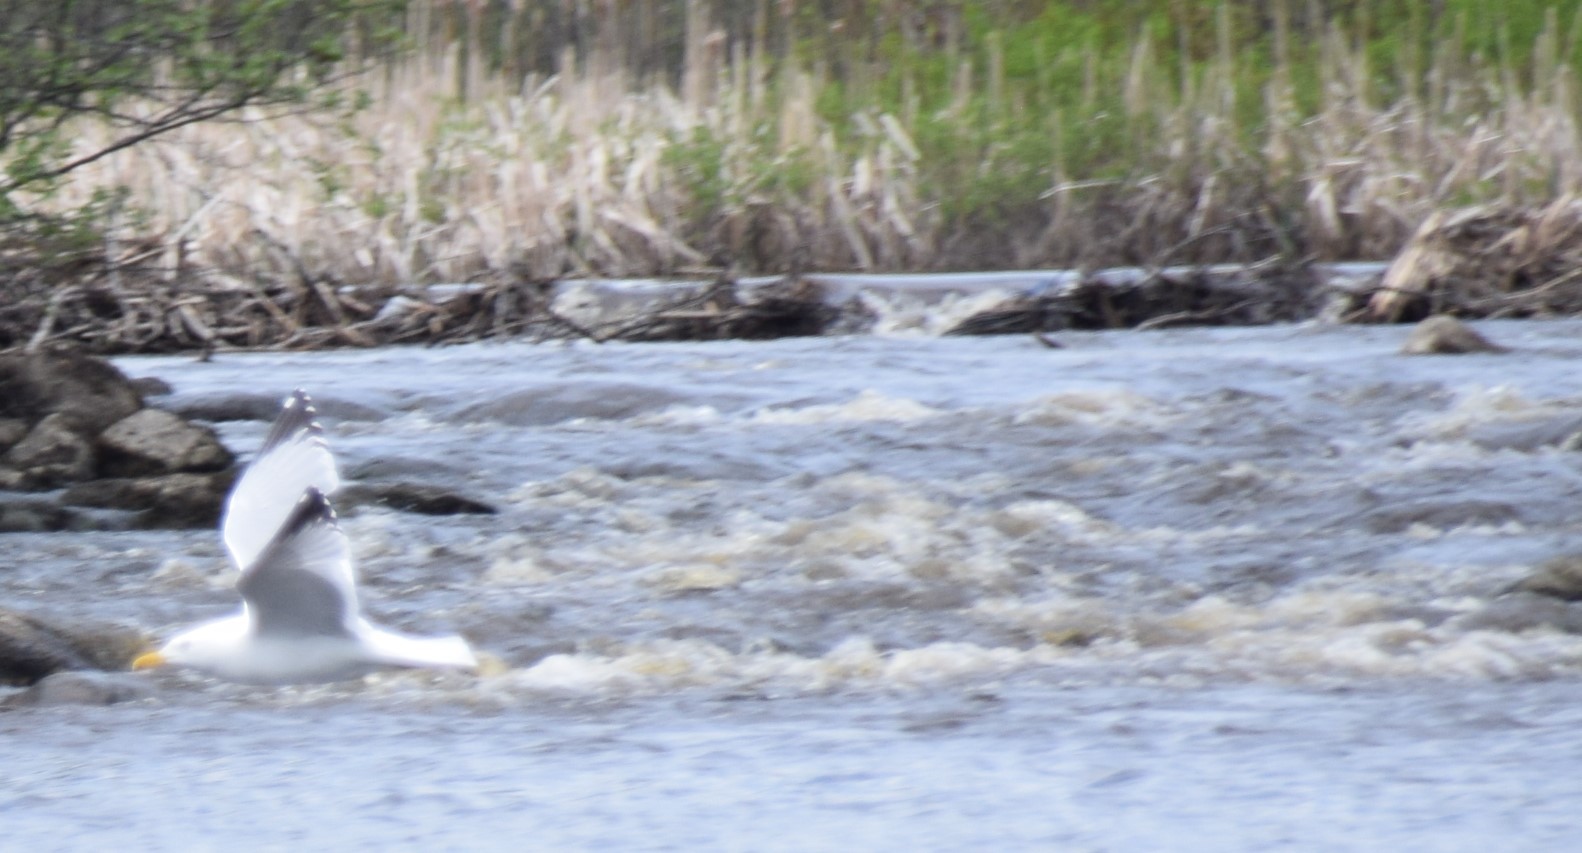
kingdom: Animalia
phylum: Chordata
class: Aves
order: Charadriiformes
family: Laridae
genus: Larus
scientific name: Larus argentatus
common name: Herring gull
